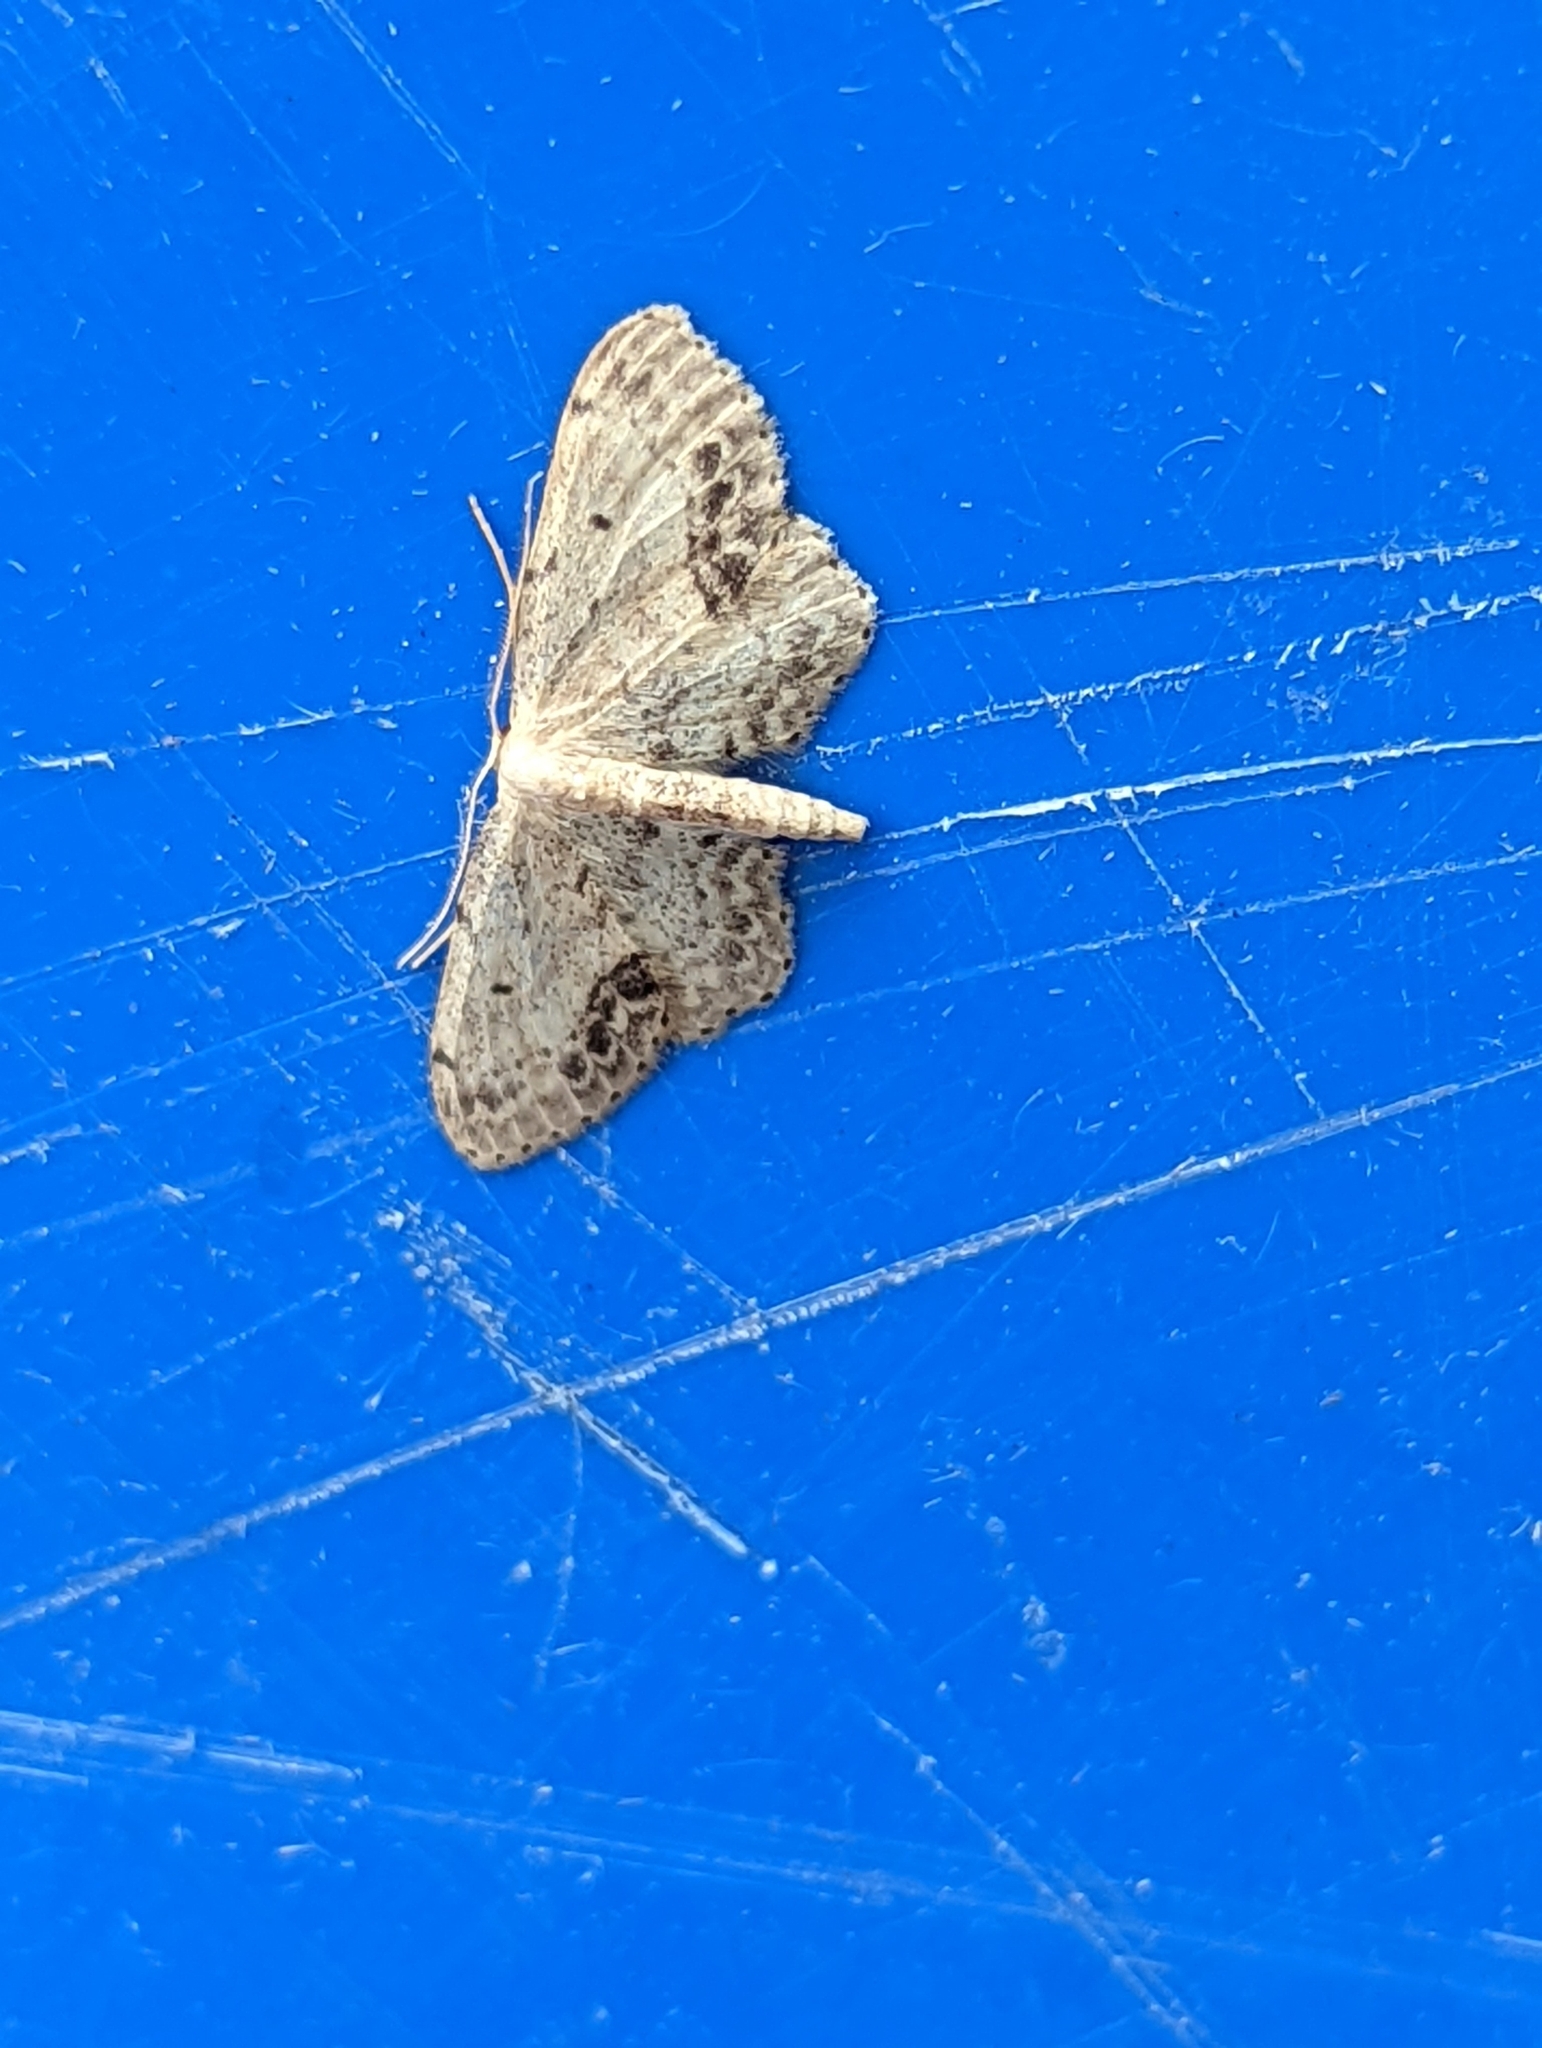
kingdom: Animalia
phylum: Arthropoda
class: Insecta
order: Lepidoptera
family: Geometridae
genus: Idaea
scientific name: Idaea dimidiata
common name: Single-dotted wave
